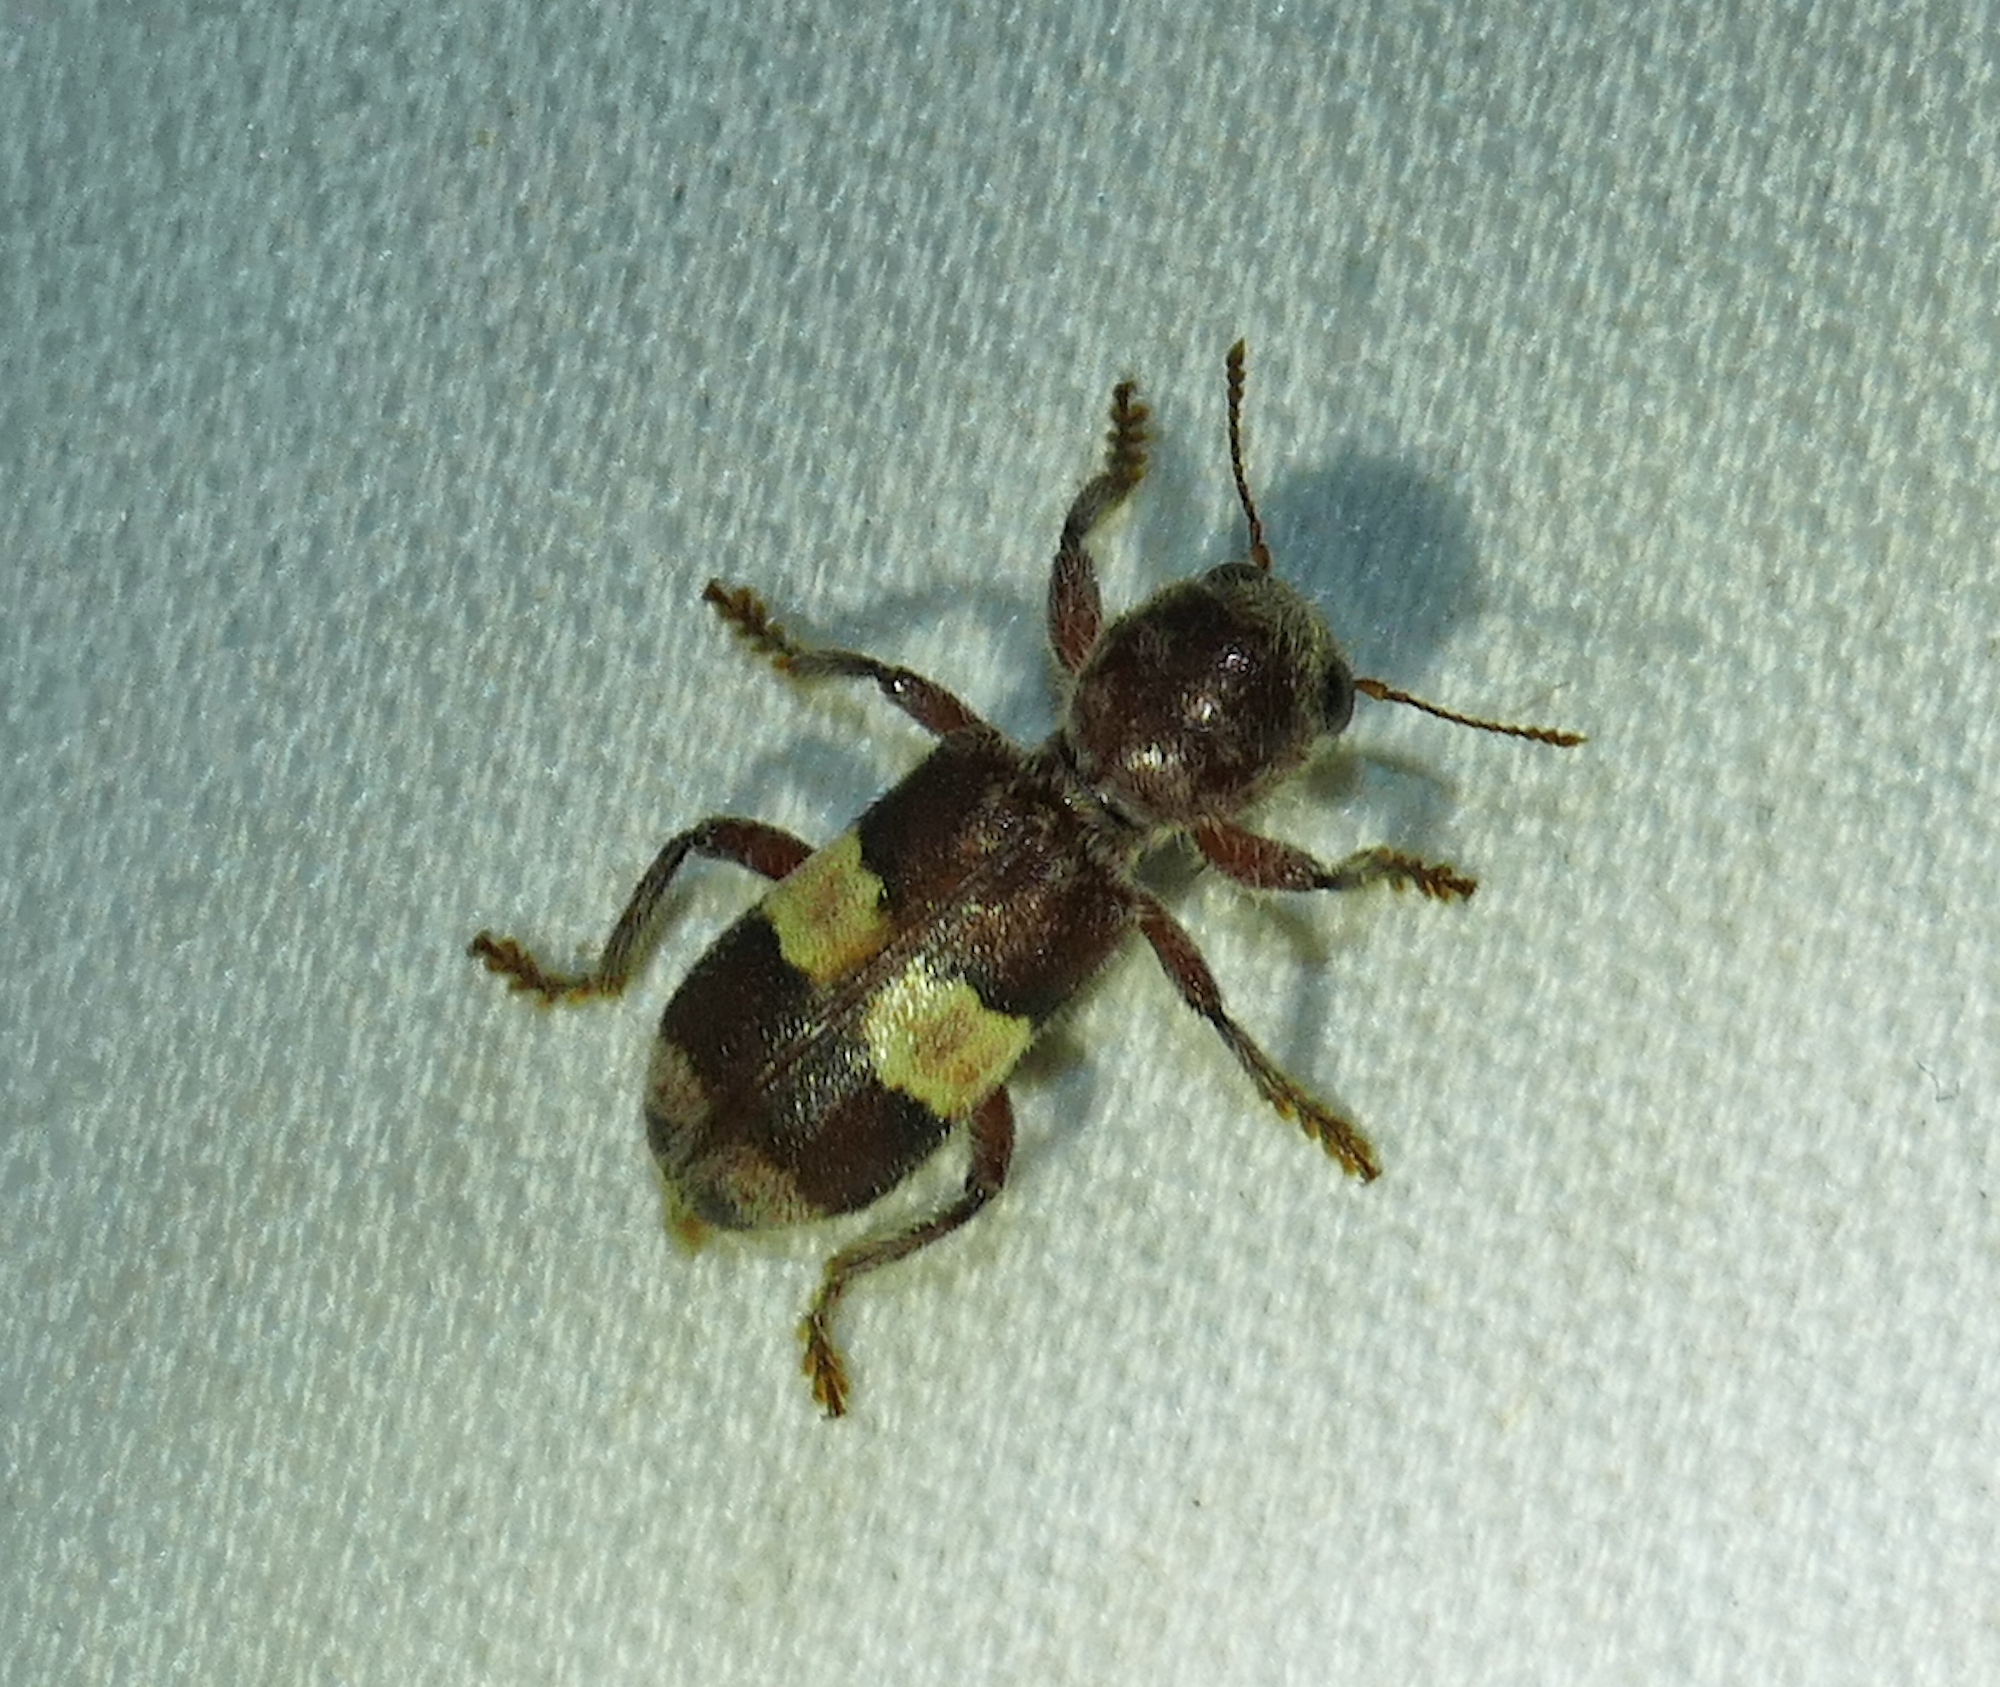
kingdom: Animalia
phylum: Arthropoda
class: Insecta
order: Coleoptera
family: Cleridae
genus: Enoclerus
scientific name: Enoclerus quadrisignatus
